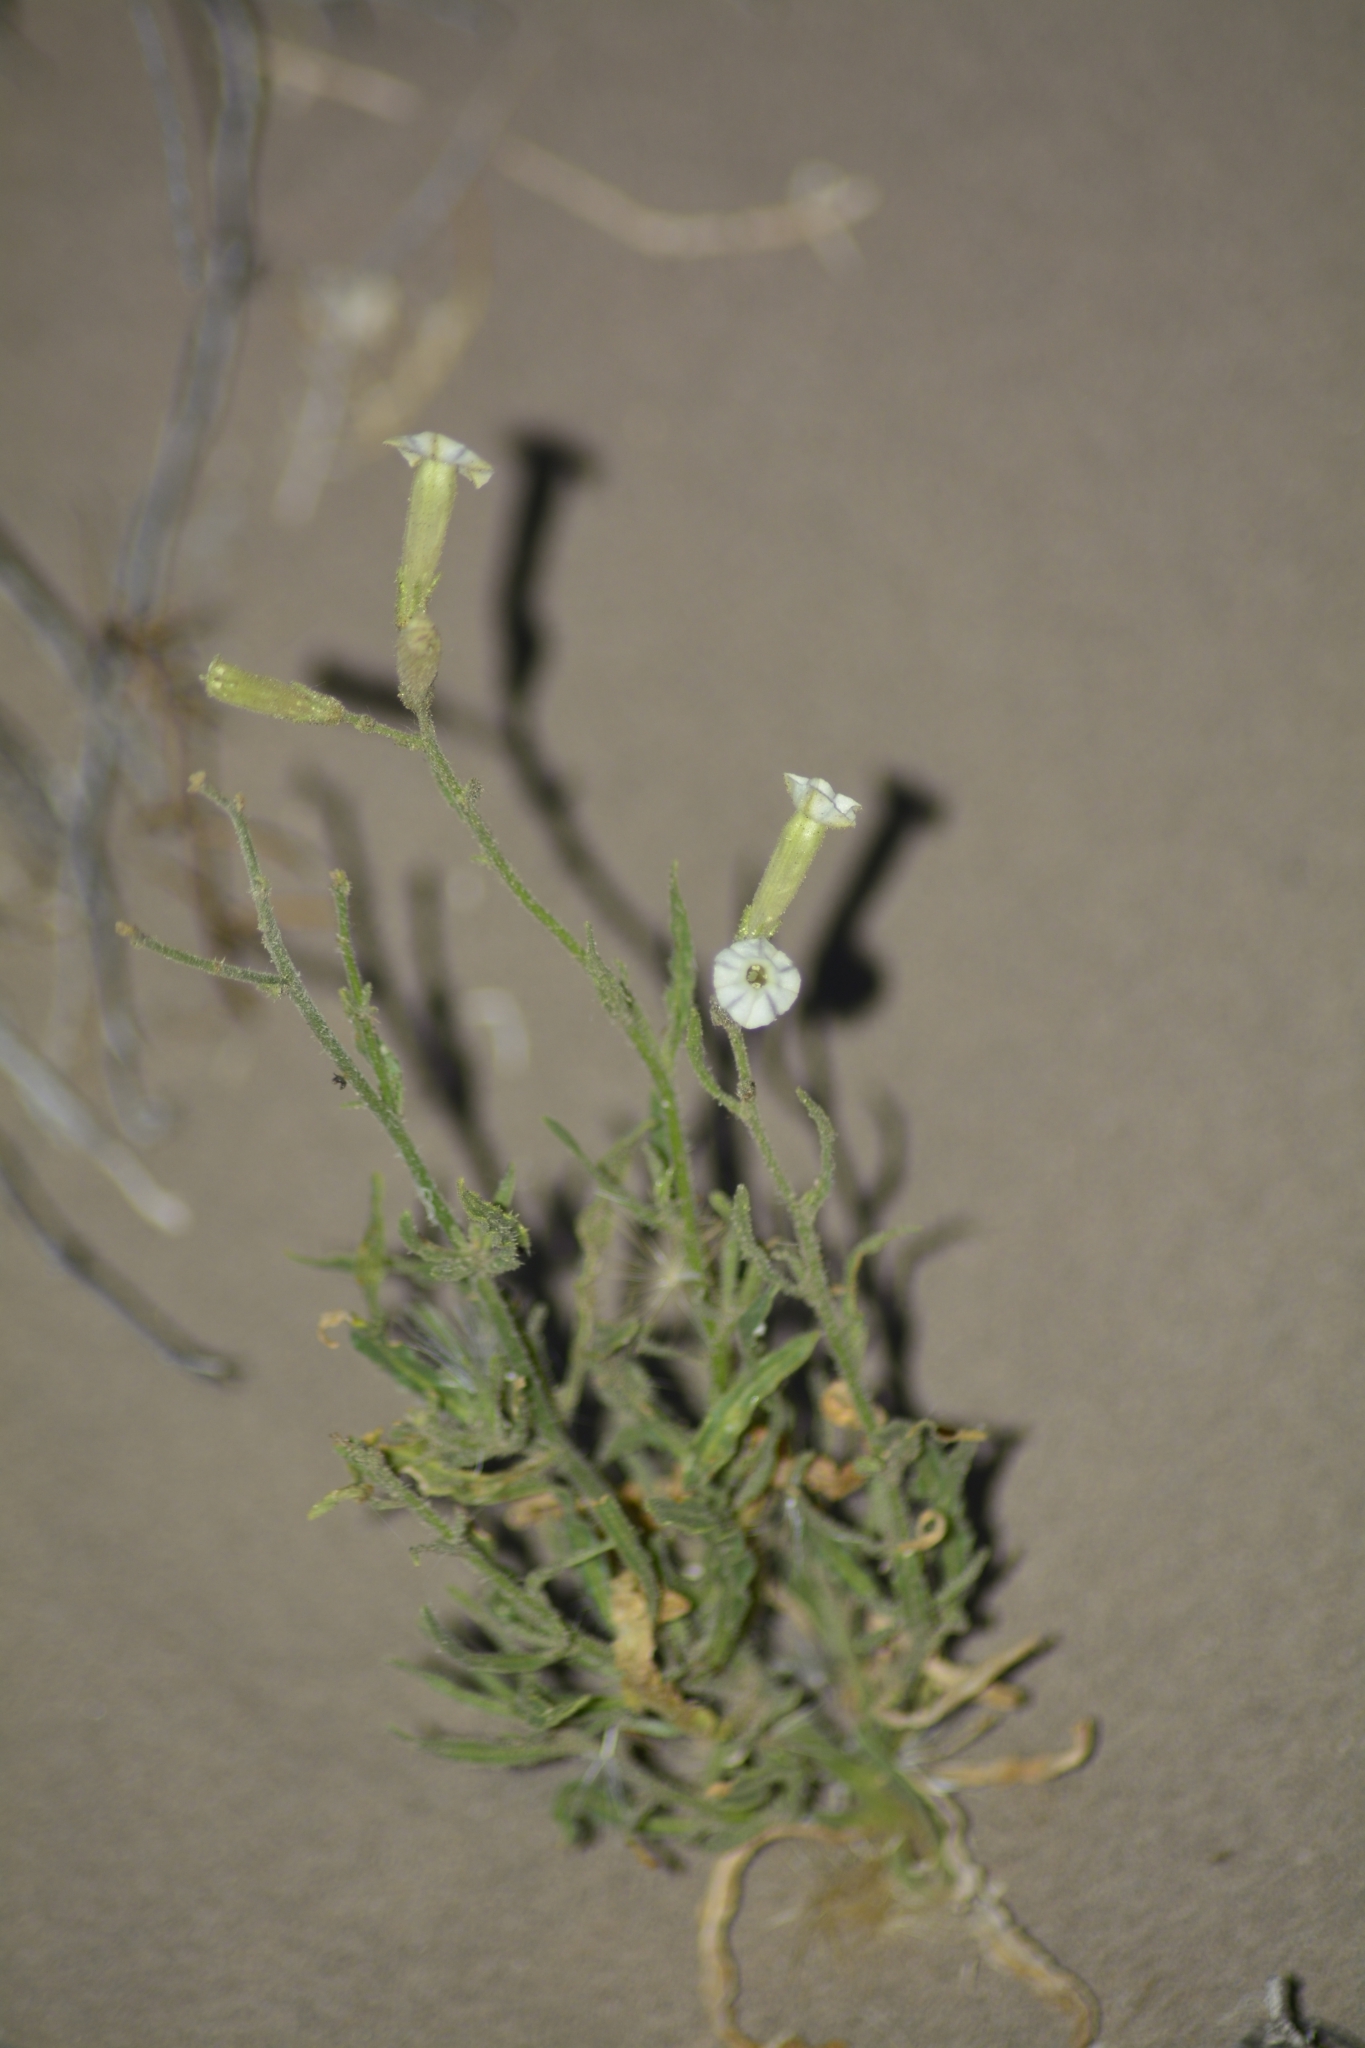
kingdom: Plantae
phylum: Tracheophyta
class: Magnoliopsida
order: Solanales
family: Solanaceae
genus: Nicotiana
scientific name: Nicotiana petunioides
